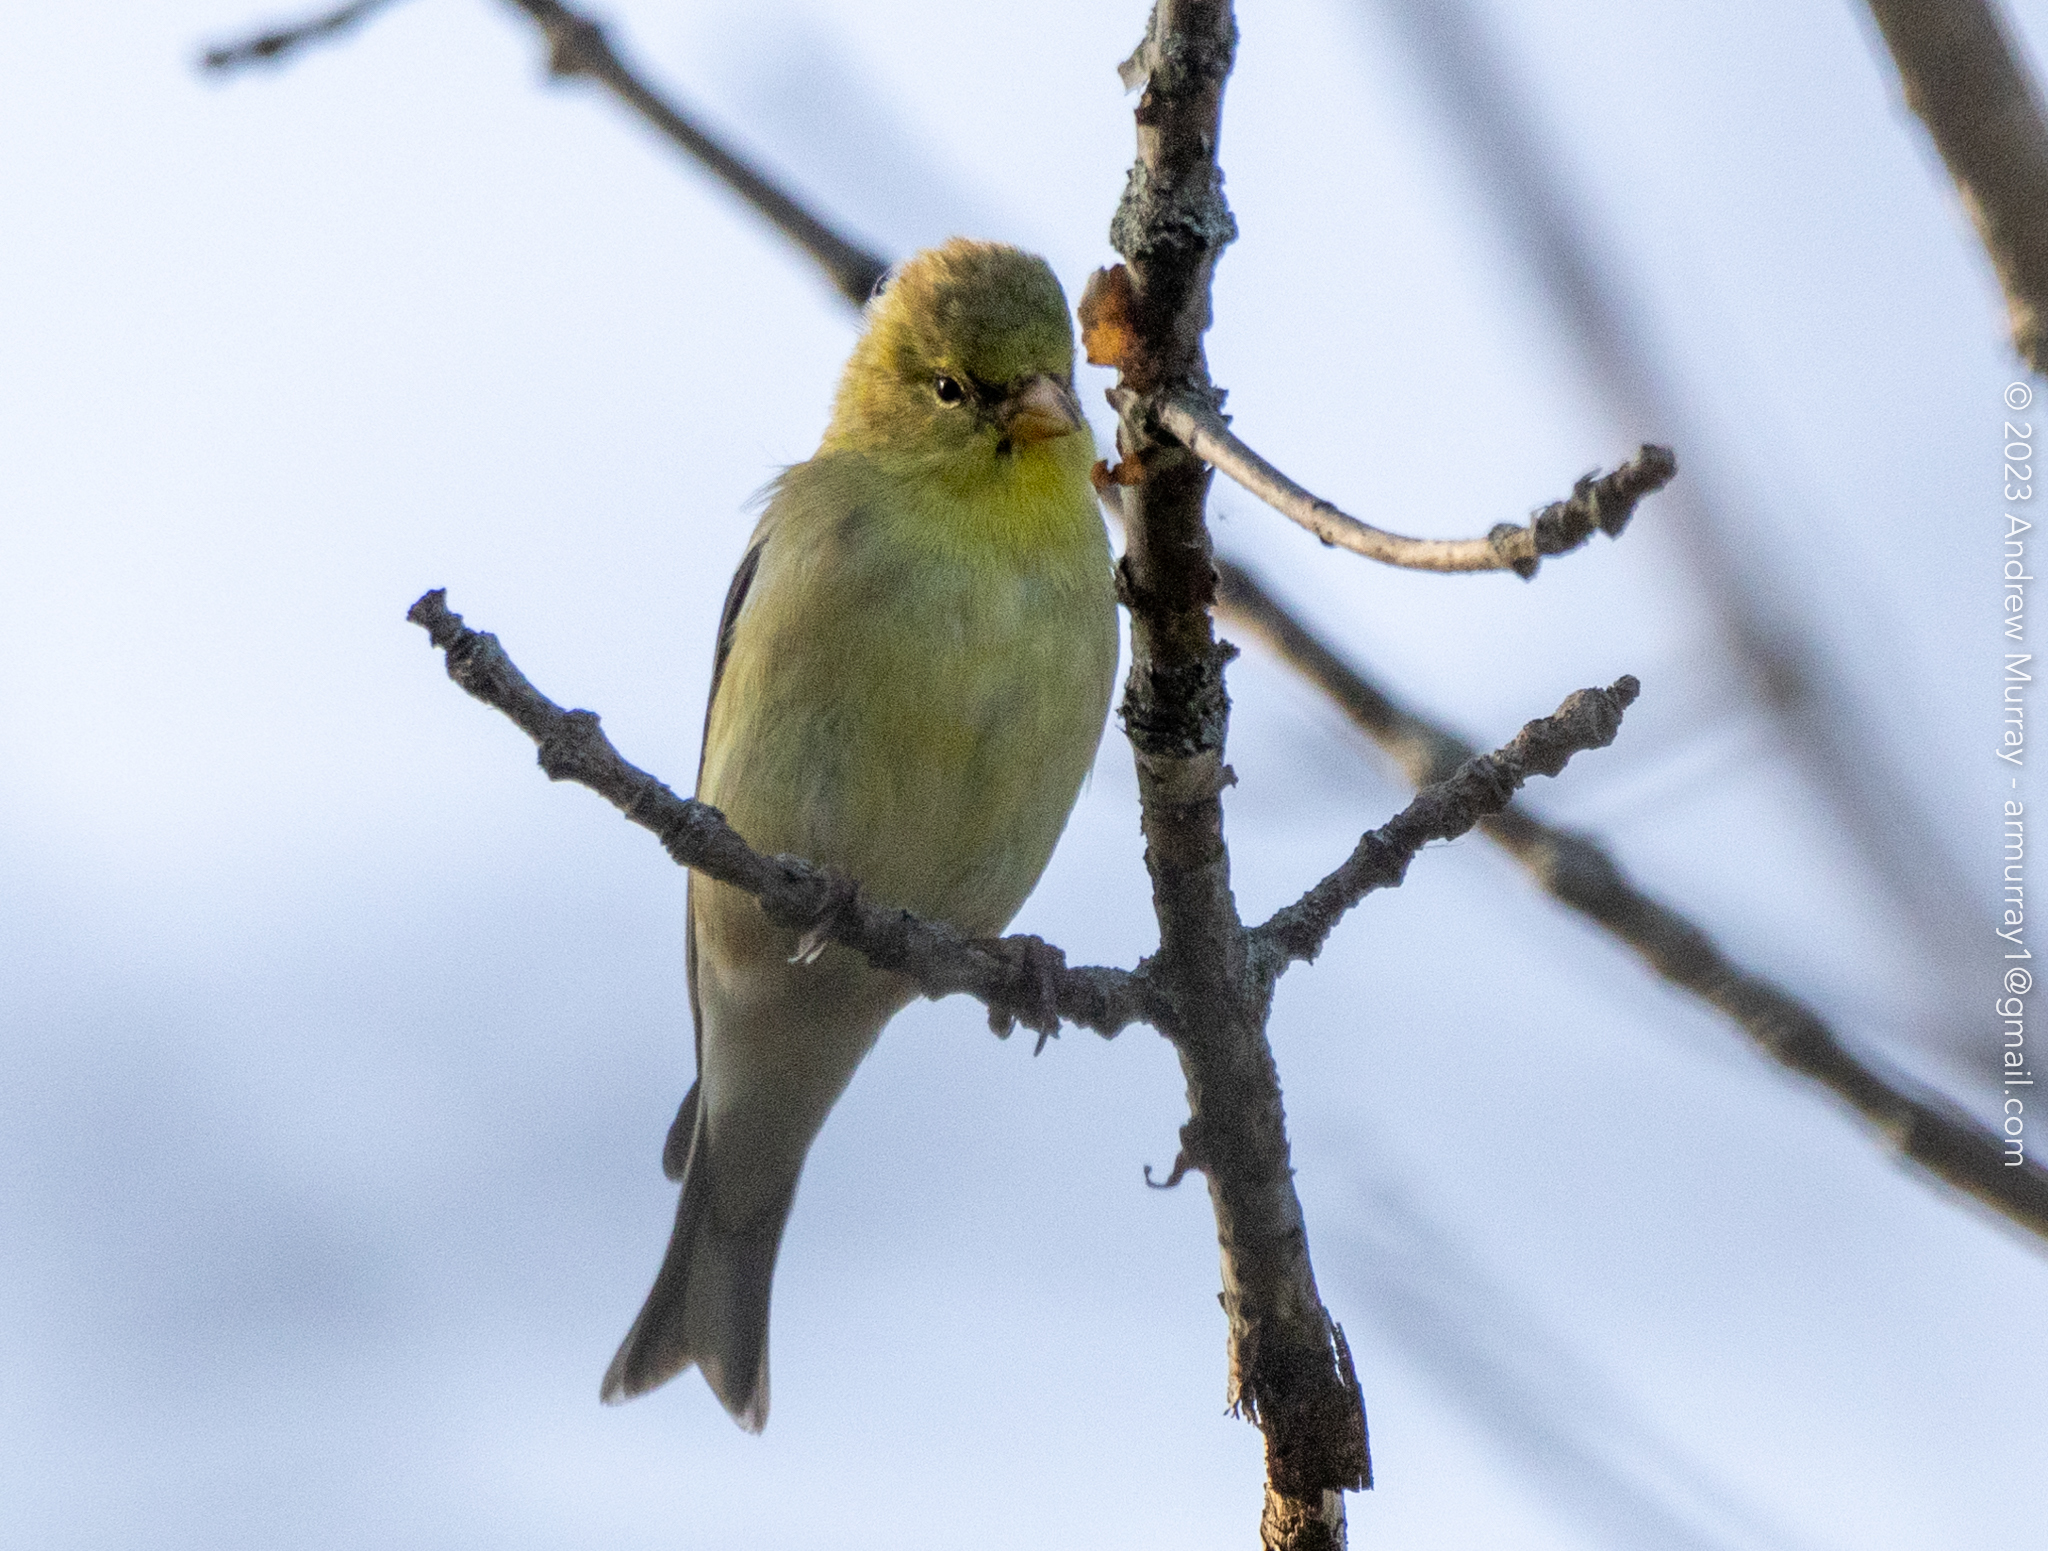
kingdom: Animalia
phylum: Chordata
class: Aves
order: Passeriformes
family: Fringillidae
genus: Spinus
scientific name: Spinus tristis
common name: American goldfinch
